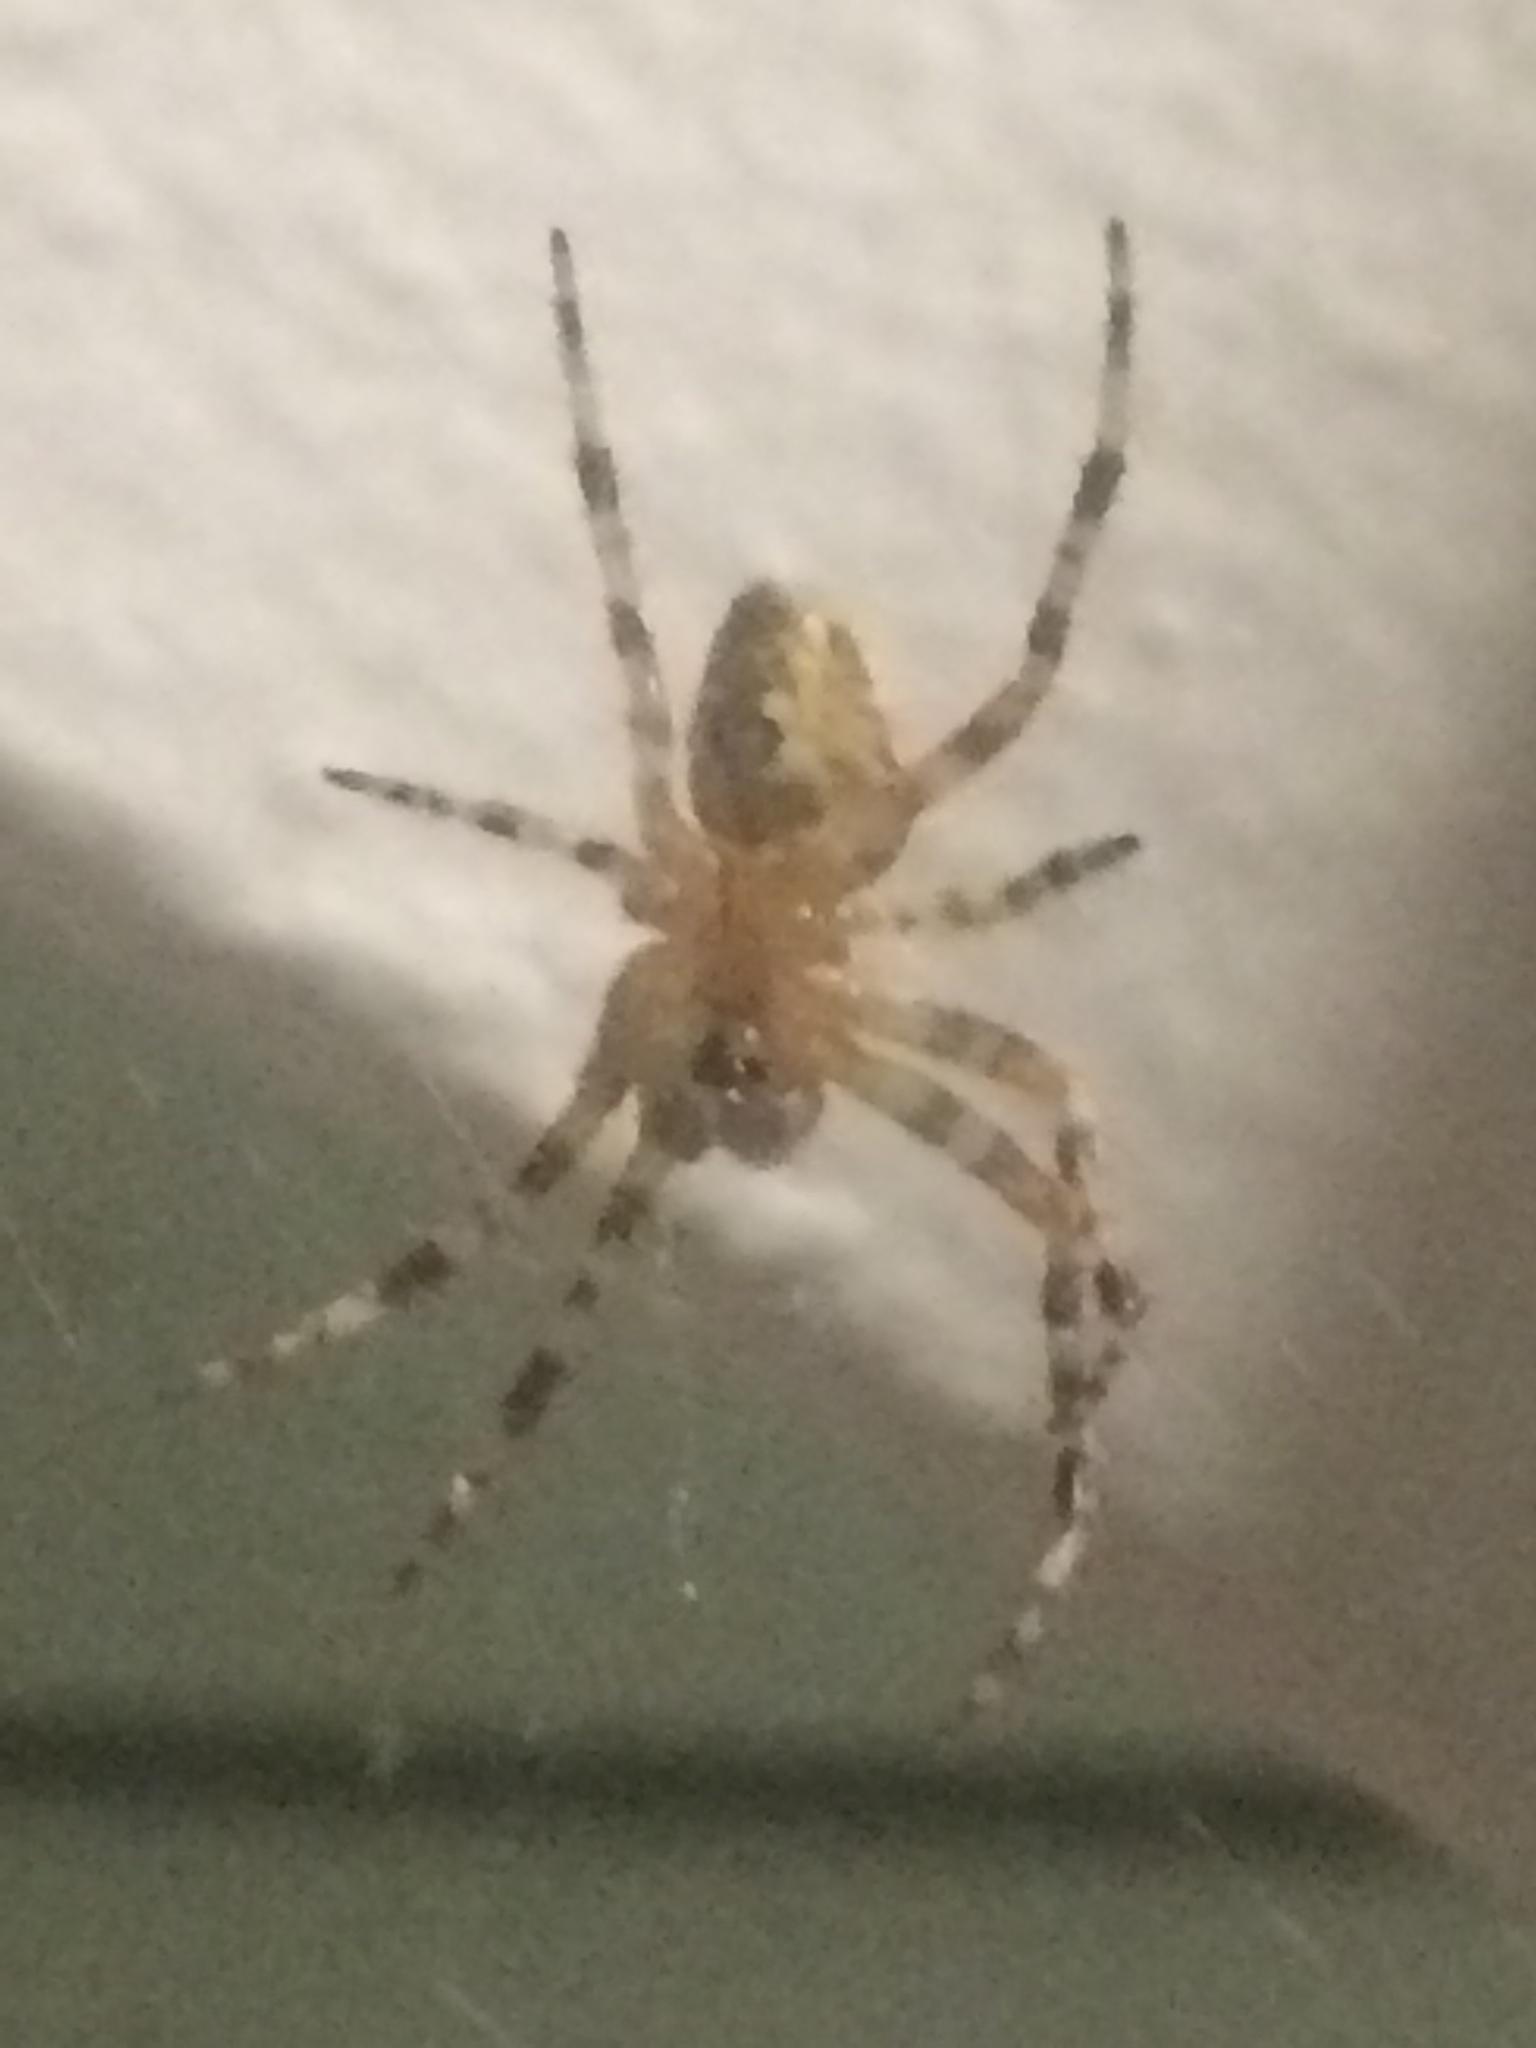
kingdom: Animalia
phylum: Arthropoda
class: Arachnida
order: Araneae
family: Araneidae
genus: Araneus
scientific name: Araneus diadematus
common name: Cross orbweaver
